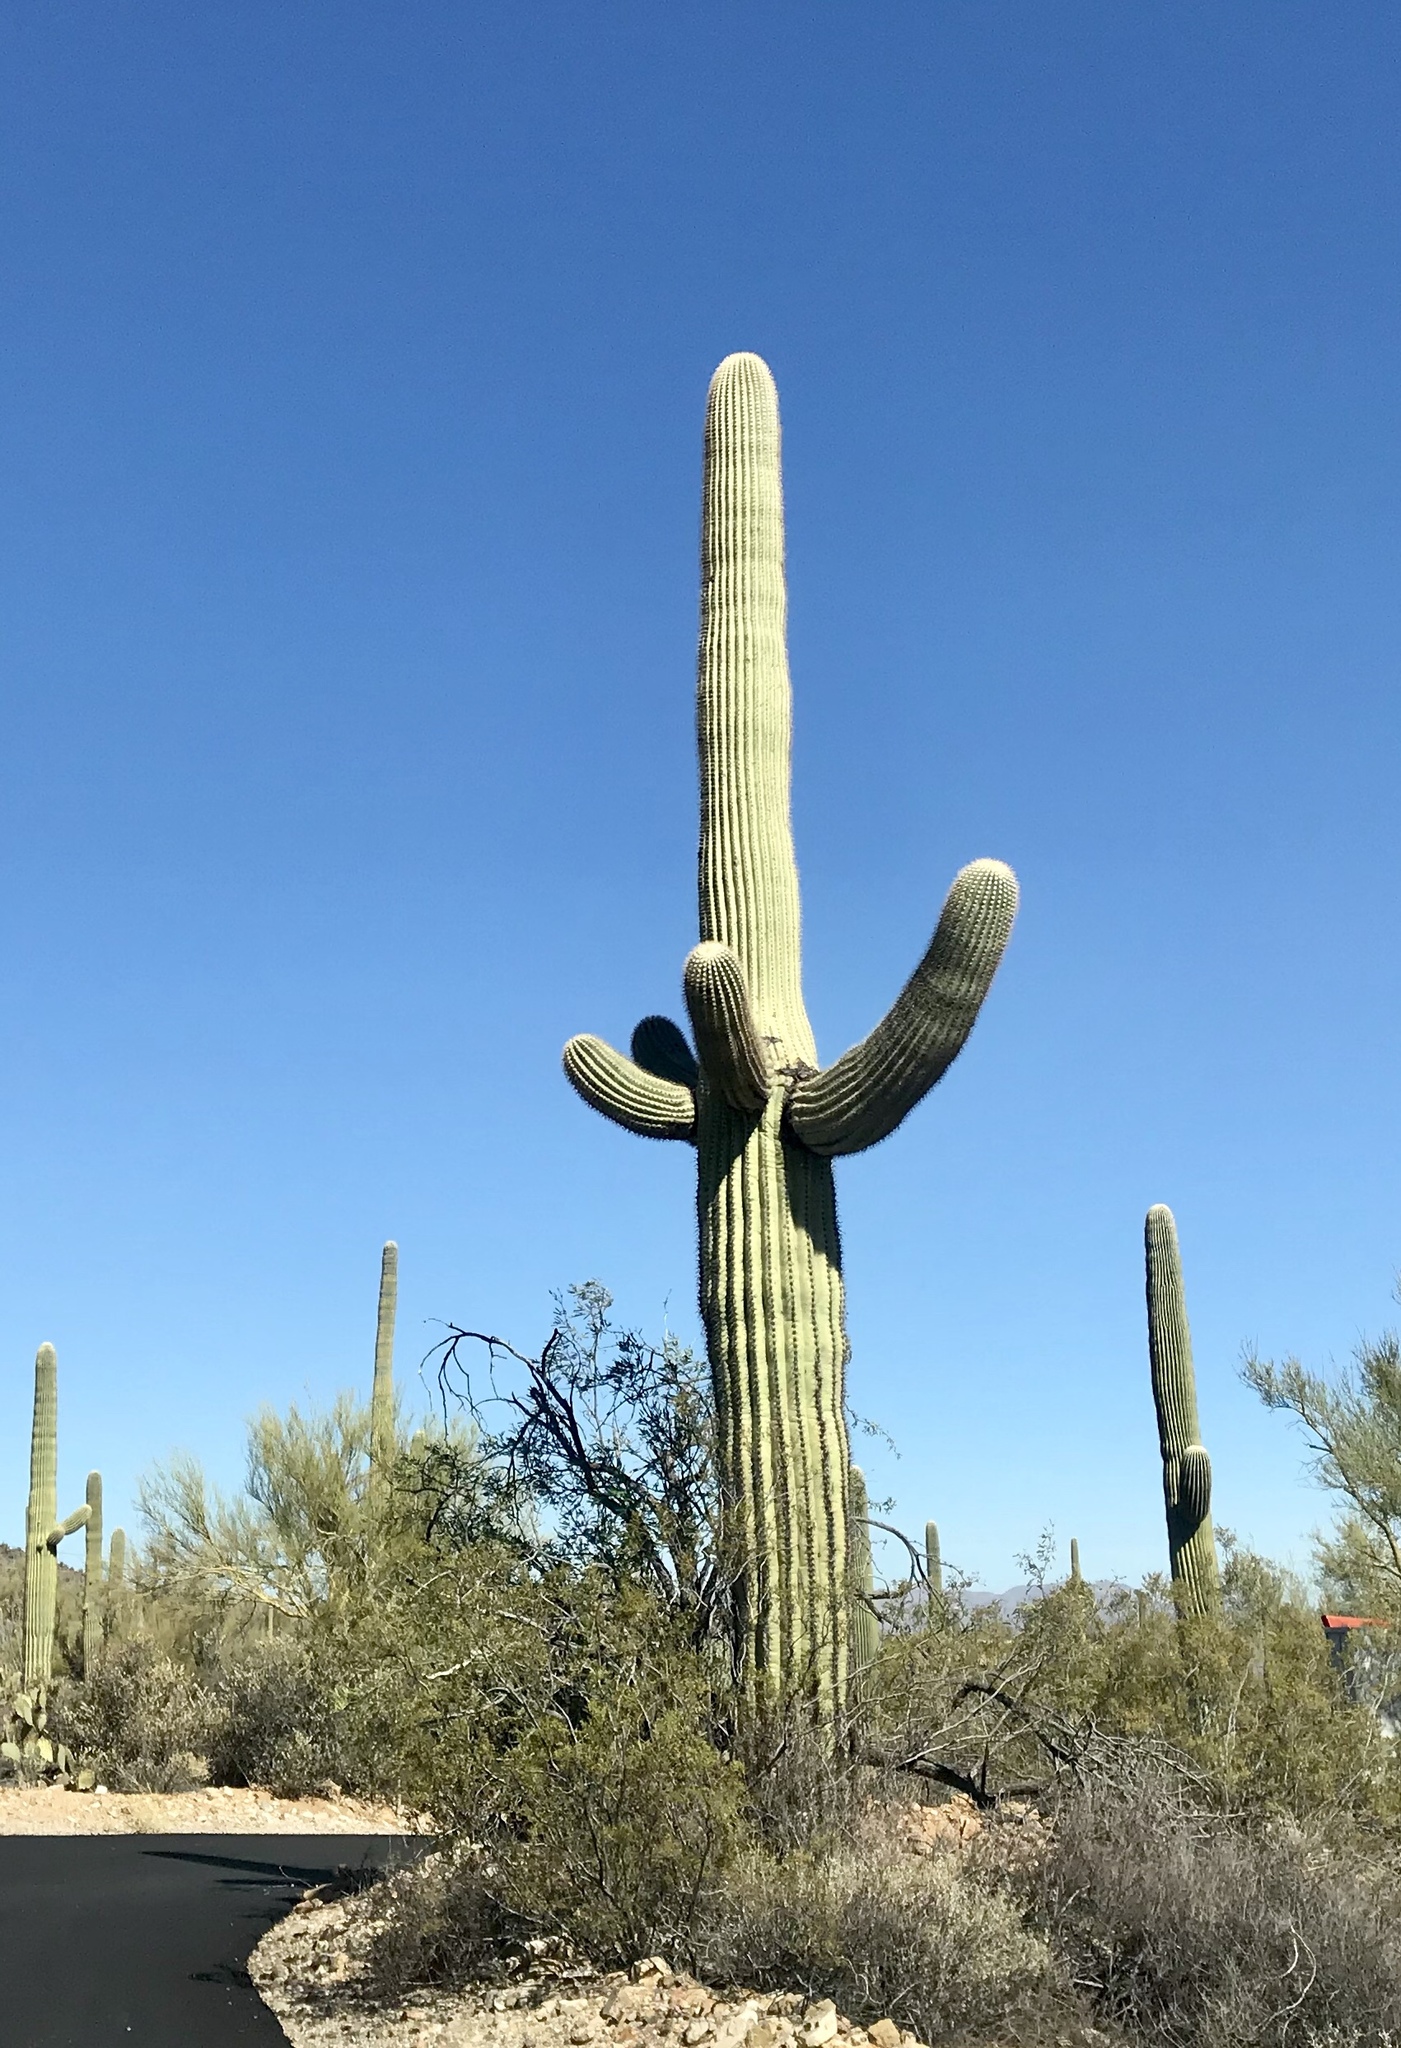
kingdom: Plantae
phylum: Tracheophyta
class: Magnoliopsida
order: Caryophyllales
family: Cactaceae
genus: Carnegiea
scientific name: Carnegiea gigantea
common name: Saguaro
